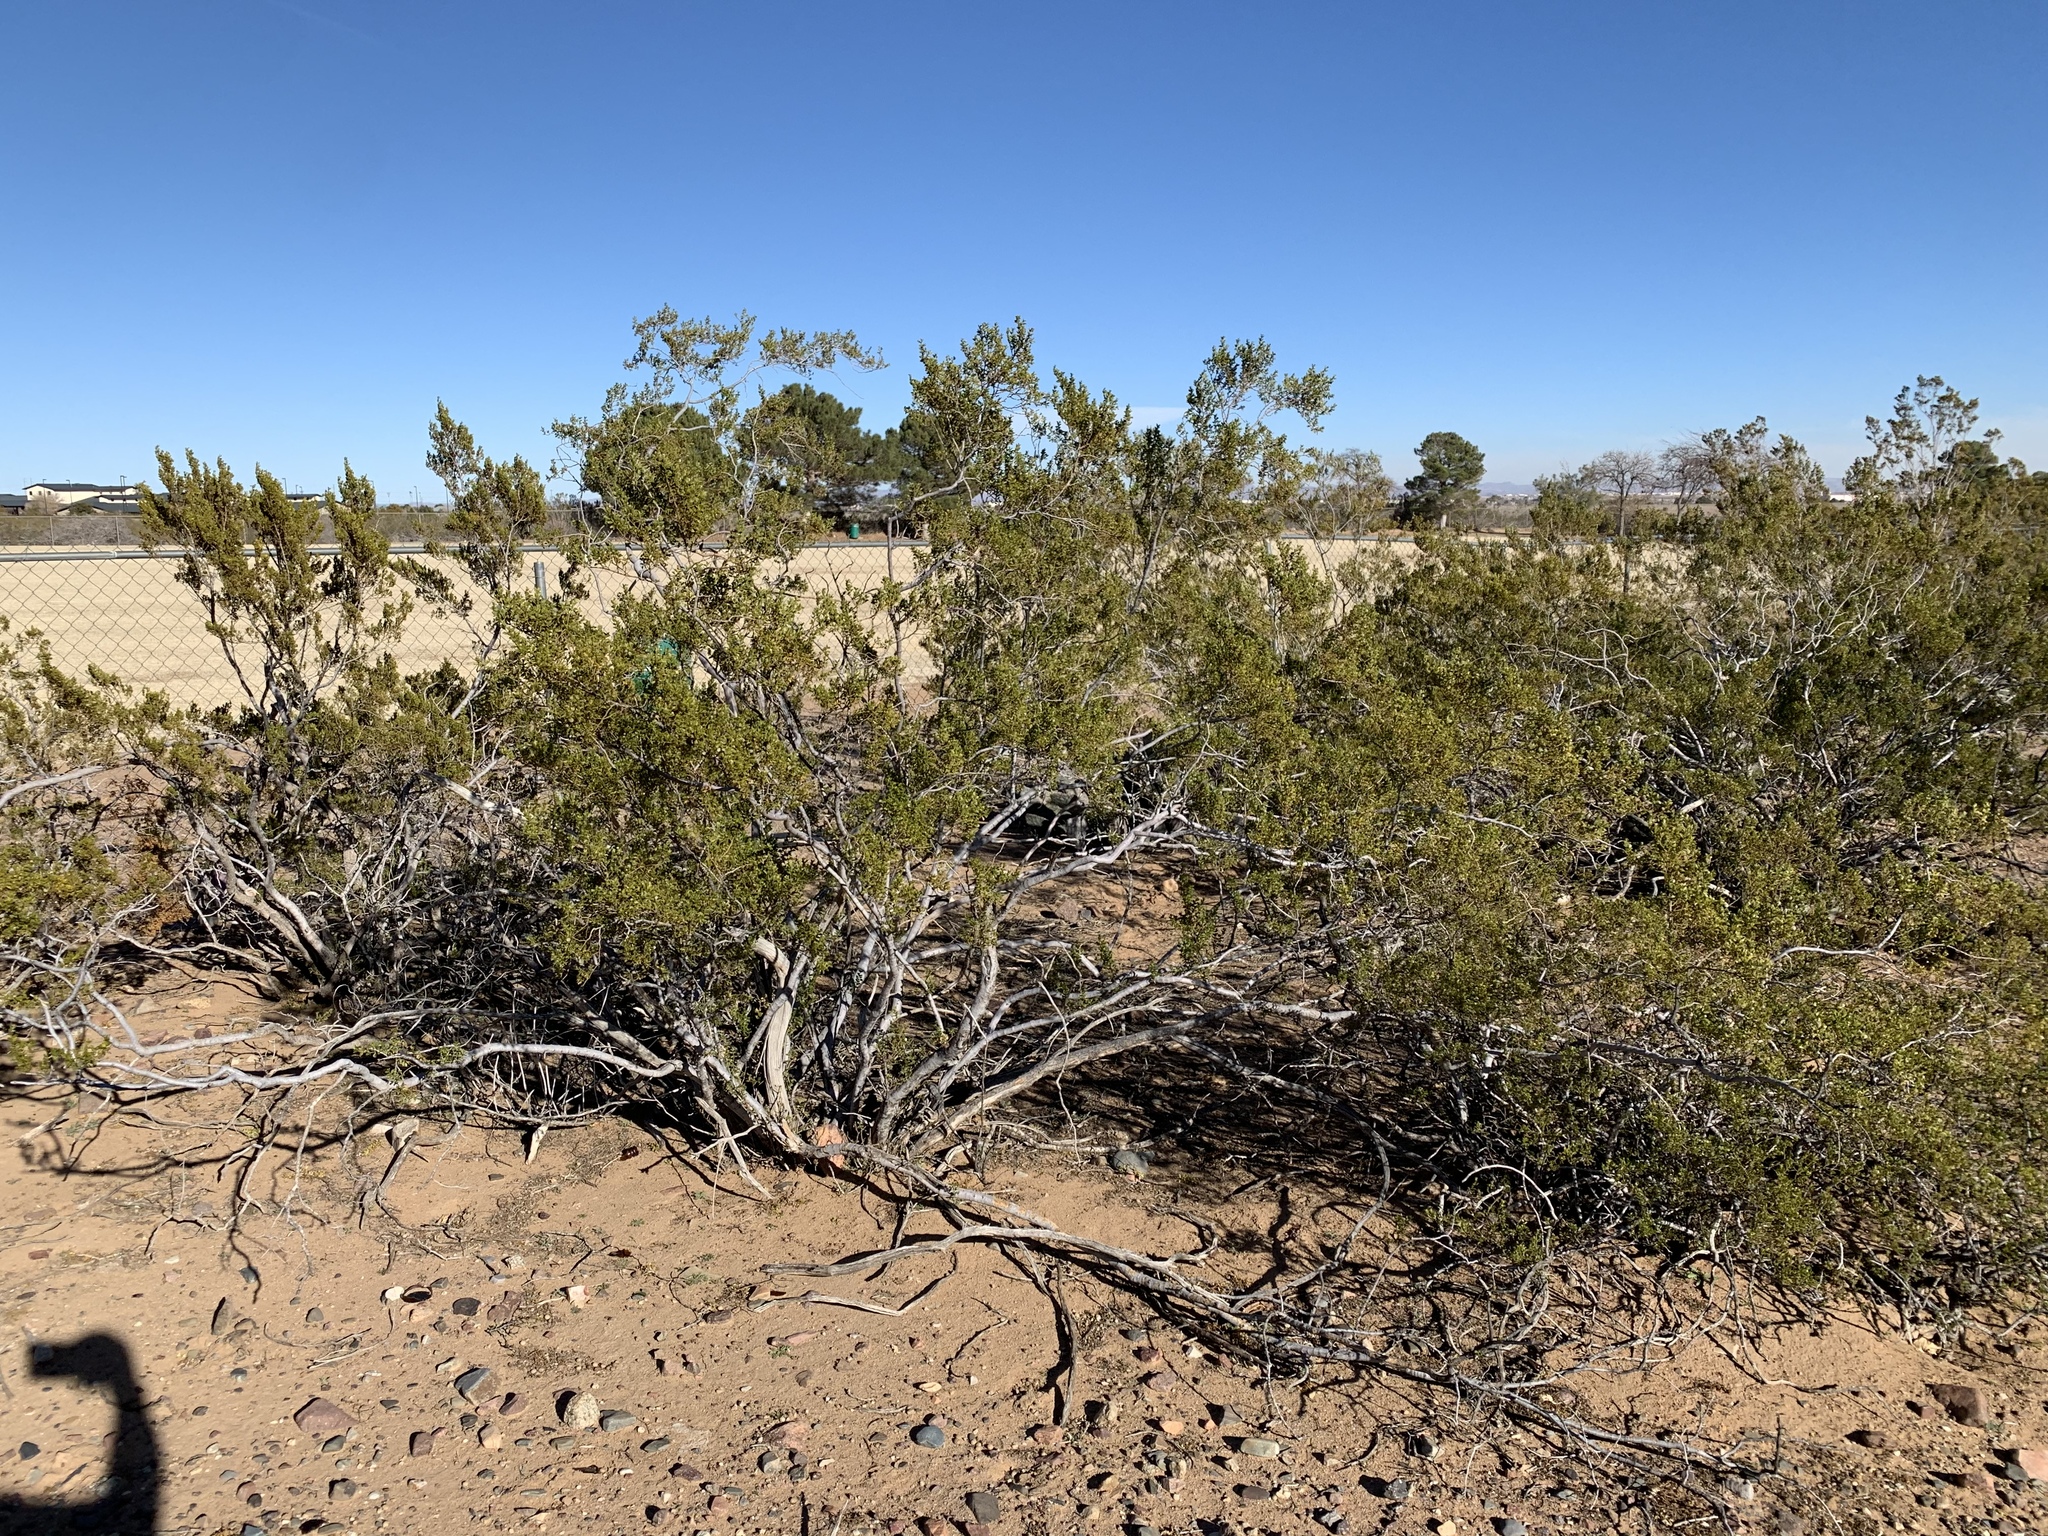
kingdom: Plantae
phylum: Tracheophyta
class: Magnoliopsida
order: Zygophyllales
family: Zygophyllaceae
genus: Larrea
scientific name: Larrea tridentata
